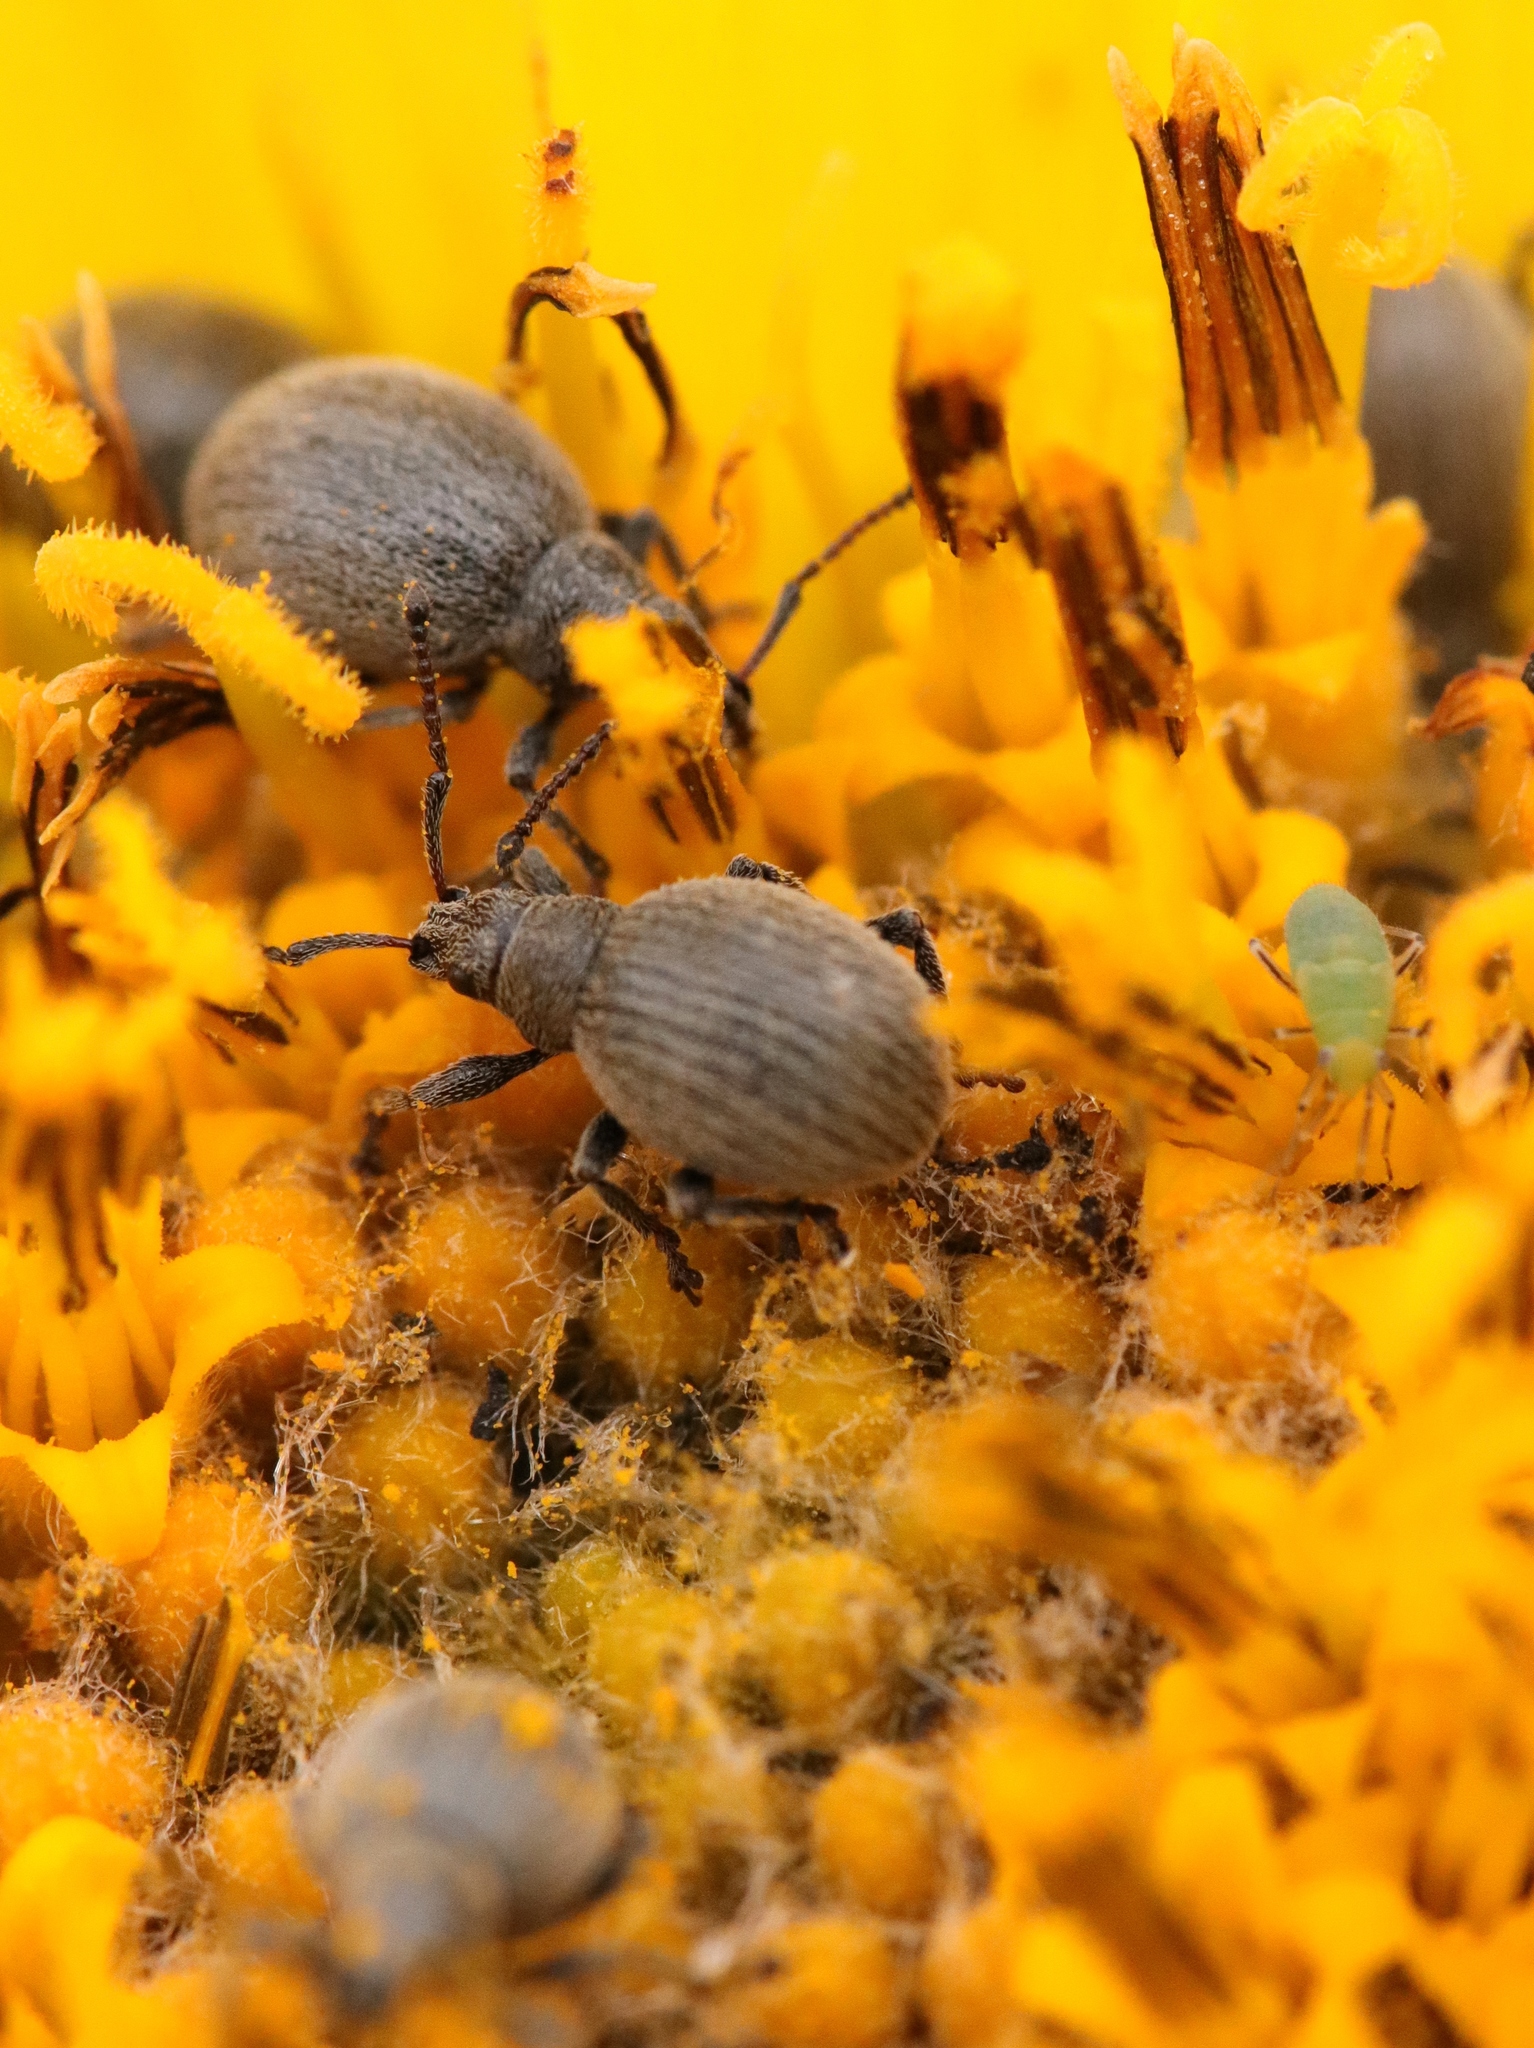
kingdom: Animalia
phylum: Arthropoda
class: Insecta
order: Coleoptera
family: Curculionidae
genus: Omias
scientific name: Omias saccatus
